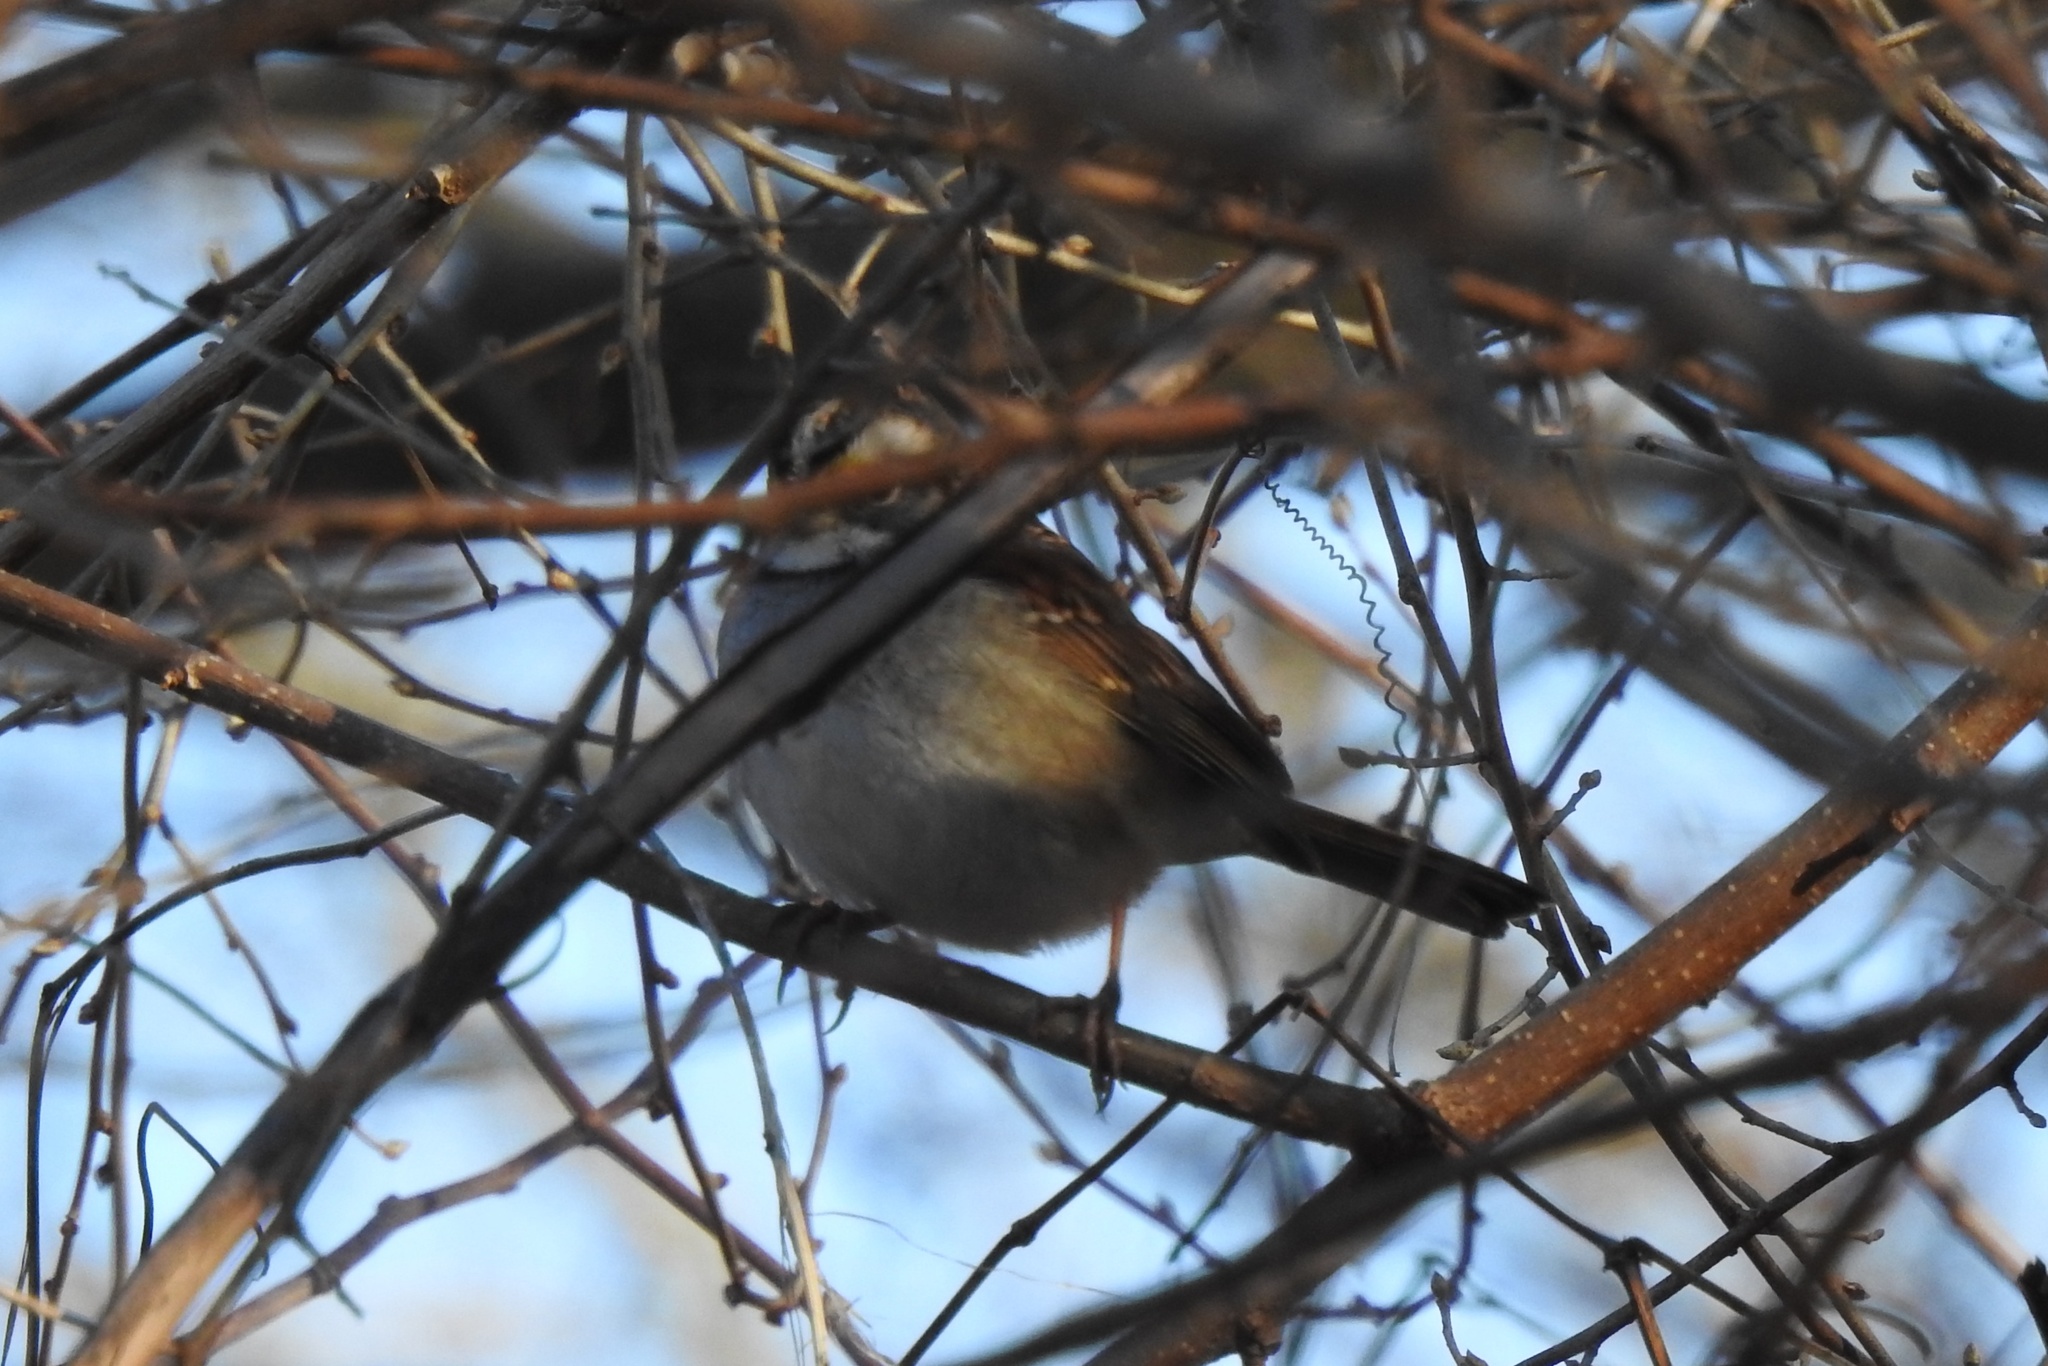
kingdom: Animalia
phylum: Chordata
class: Aves
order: Passeriformes
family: Passerellidae
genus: Zonotrichia
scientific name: Zonotrichia albicollis
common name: White-throated sparrow
